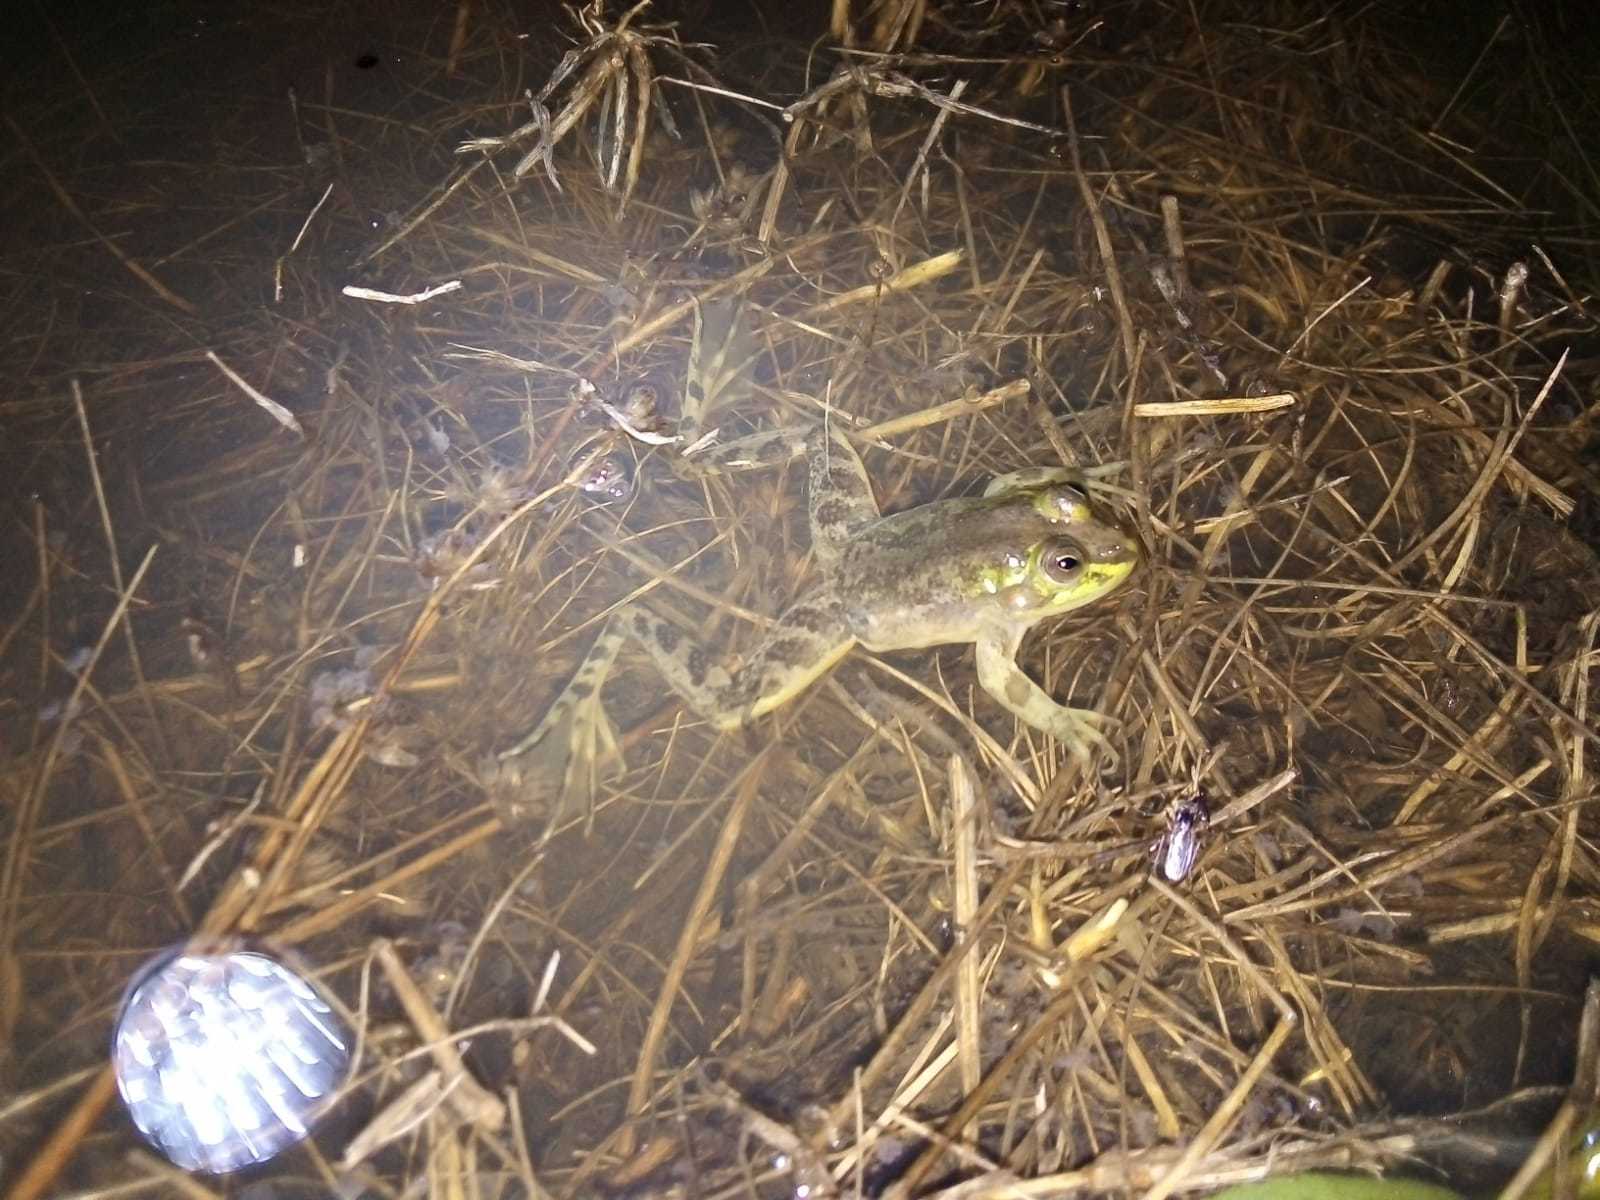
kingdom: Animalia
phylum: Chordata
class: Amphibia
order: Anura
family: Hylidae
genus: Pseudis
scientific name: Pseudis minuta
